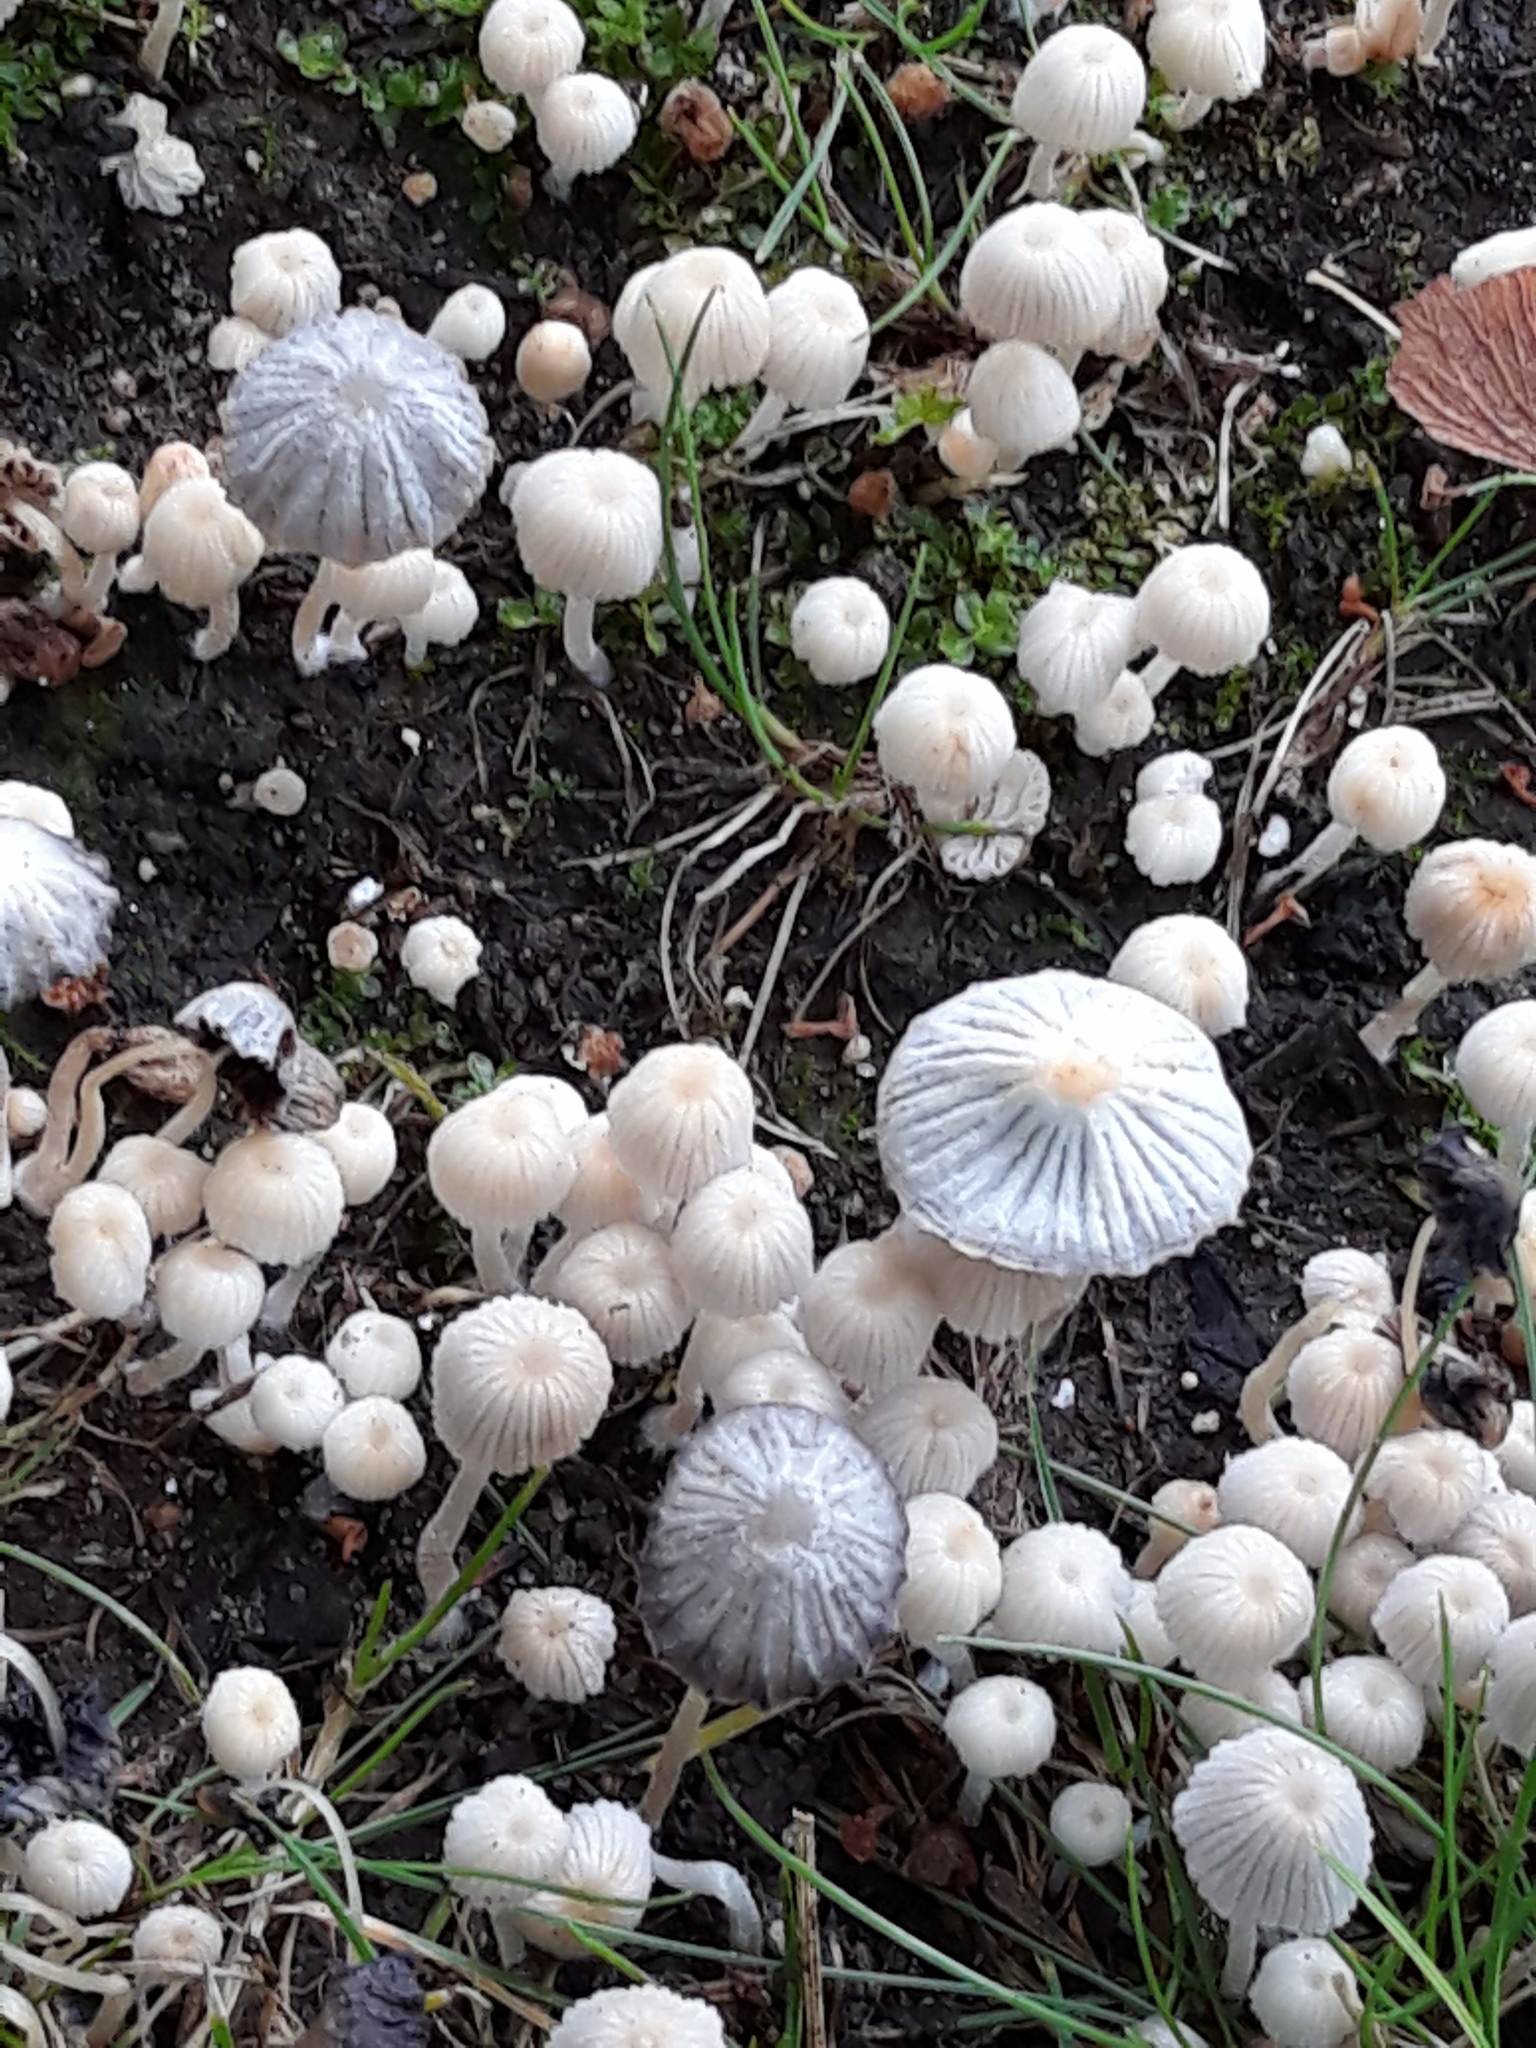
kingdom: Fungi
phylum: Basidiomycota
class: Agaricomycetes
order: Agaricales
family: Psathyrellaceae
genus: Coprinellus
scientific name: Coprinellus disseminatus
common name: Fairies' bonnets
